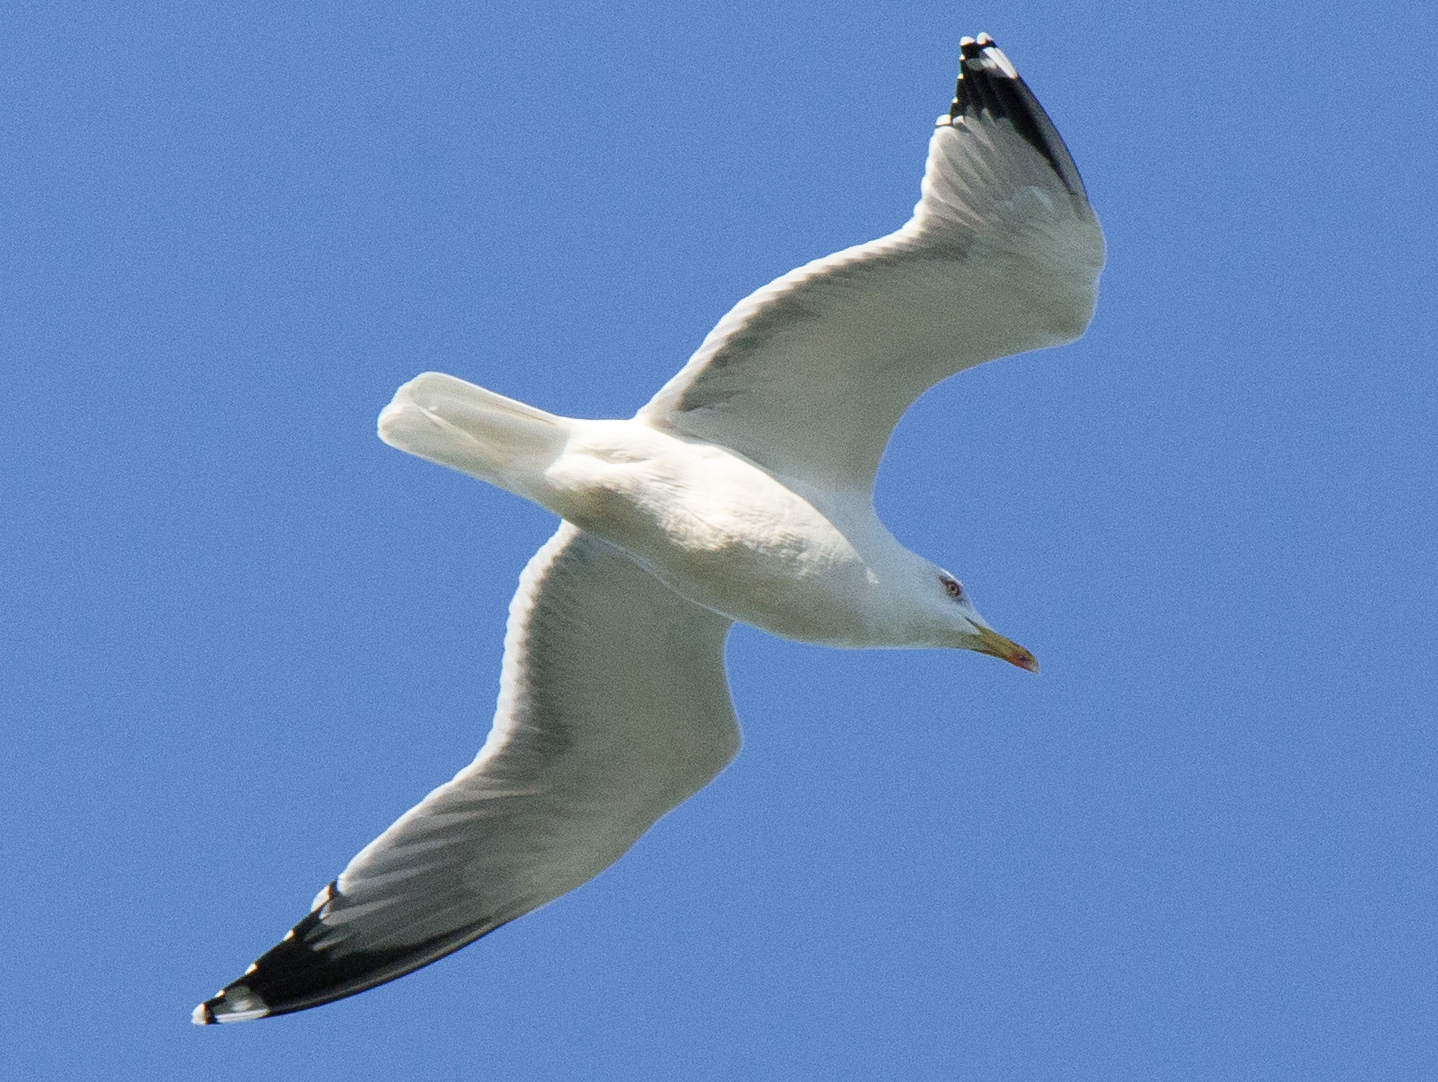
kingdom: Animalia
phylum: Chordata
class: Aves
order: Charadriiformes
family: Laridae
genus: Larus
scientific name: Larus michahellis
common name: Yellow-legged gull
